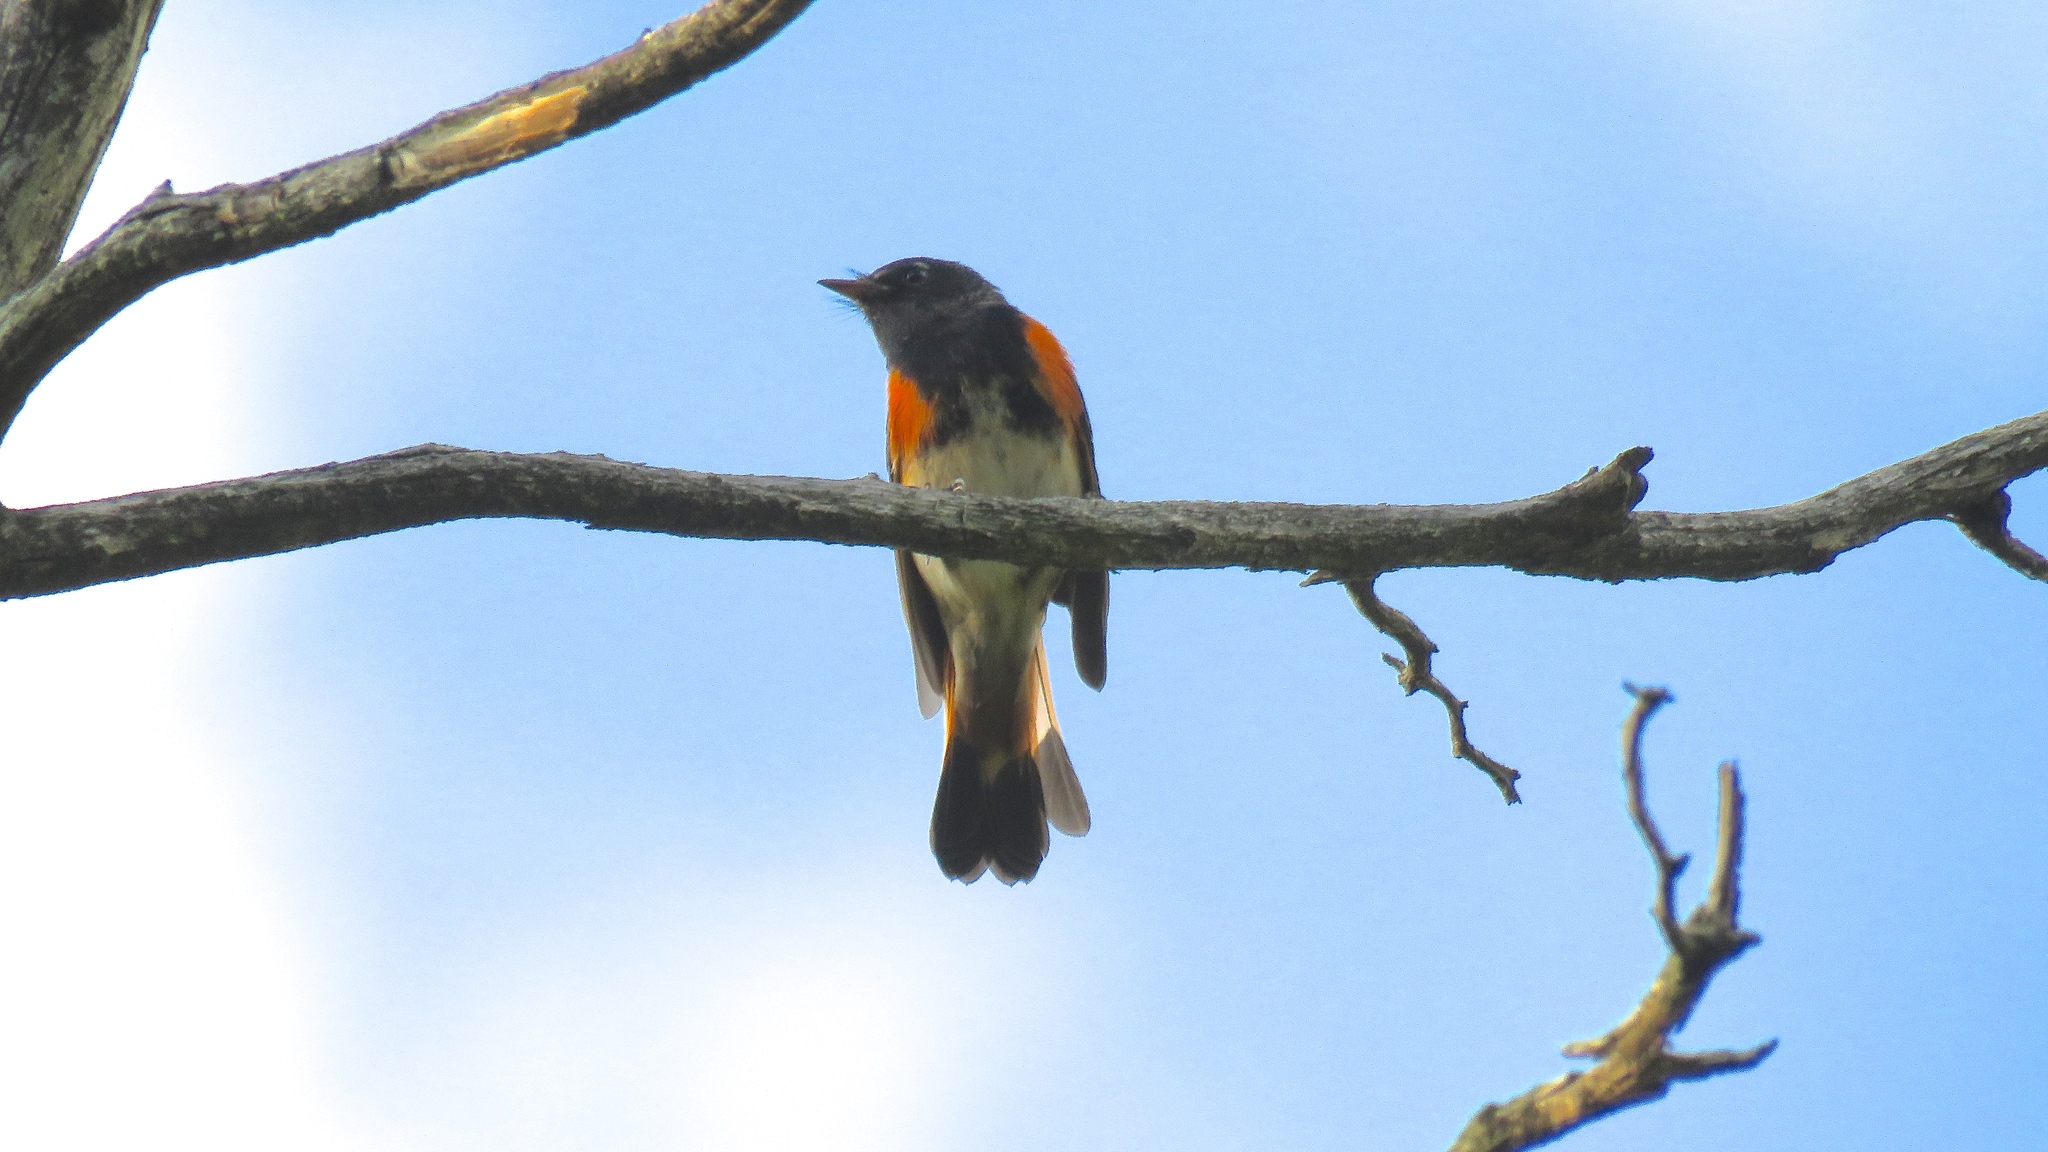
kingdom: Animalia
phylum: Chordata
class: Aves
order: Passeriformes
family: Parulidae
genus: Setophaga
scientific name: Setophaga ruticilla
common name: American redstart
